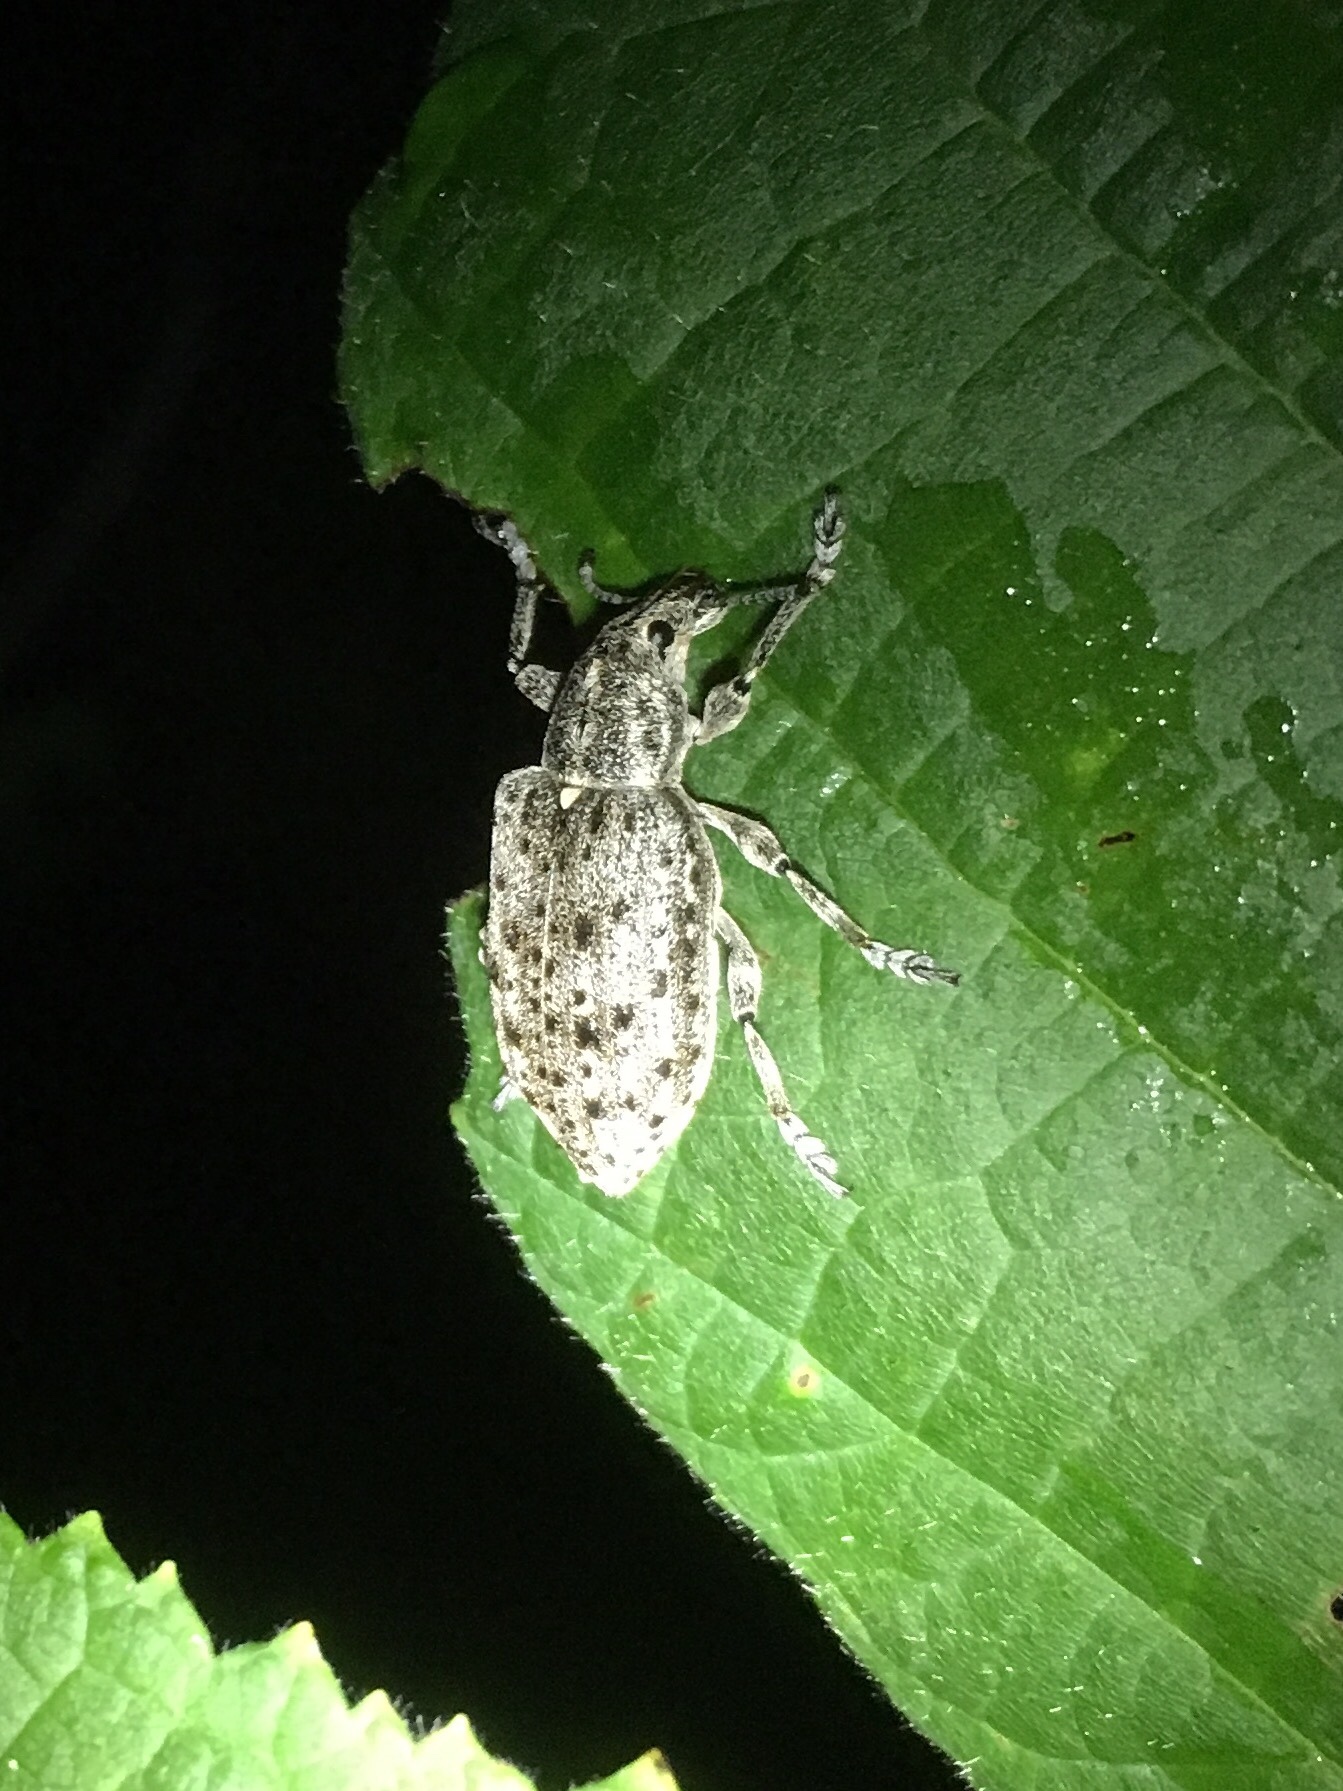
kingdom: Animalia
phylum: Arthropoda
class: Insecta
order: Coleoptera
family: Ithyceridae
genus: Ithycerus
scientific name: Ithycerus noveboracensis
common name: New york weevil
